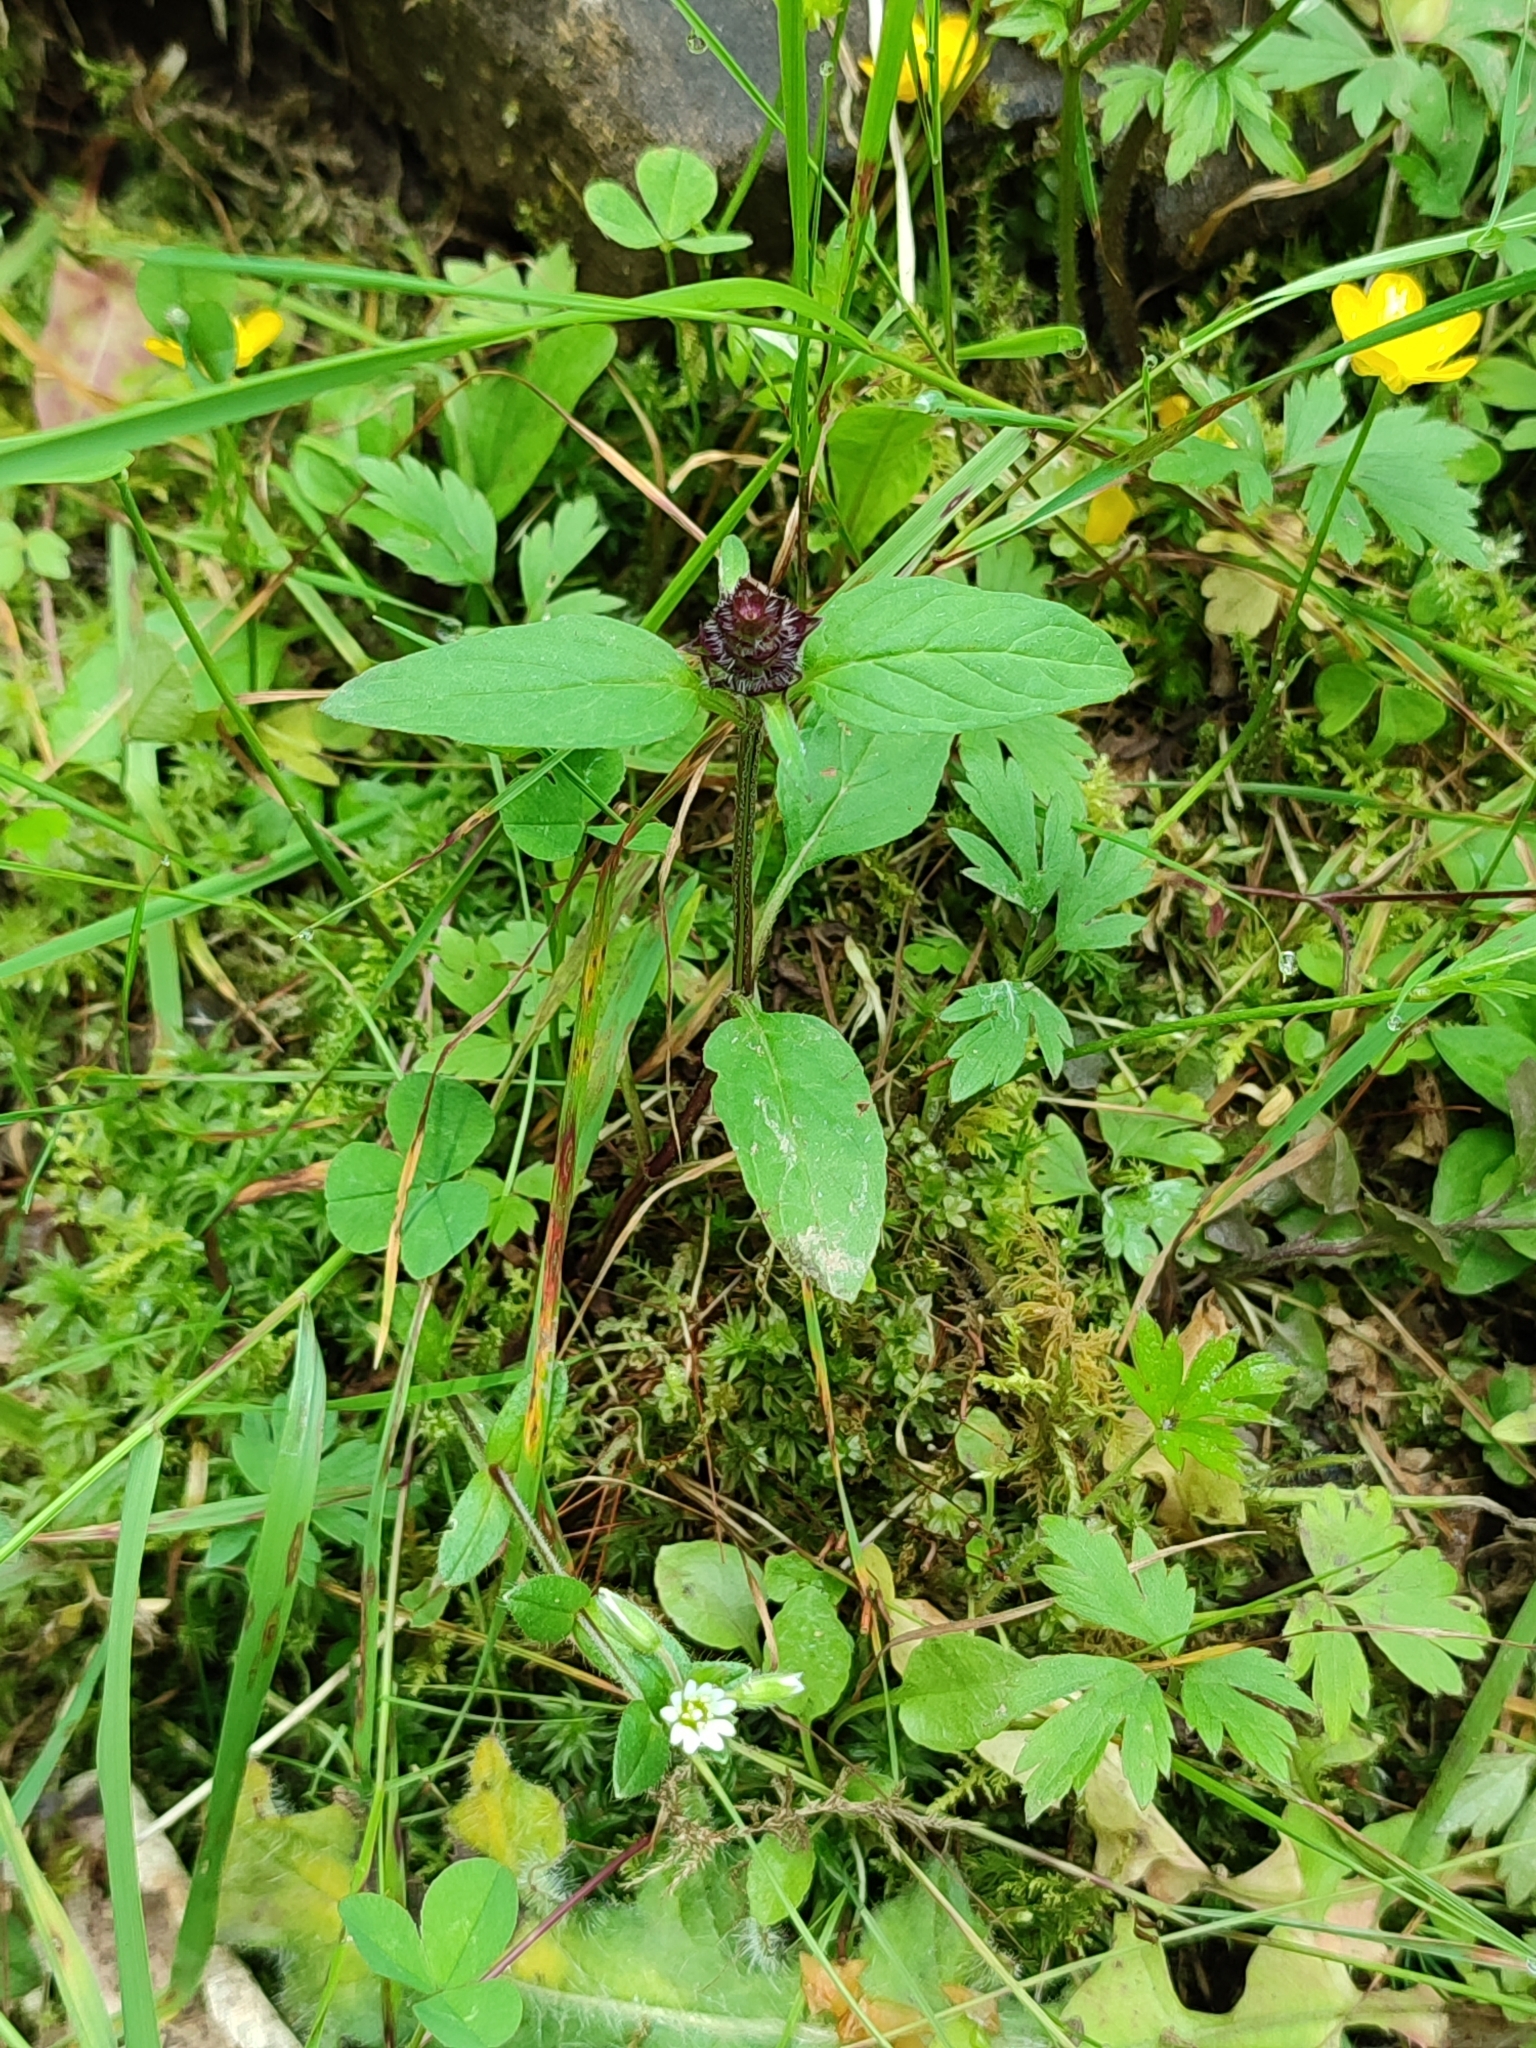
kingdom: Plantae
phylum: Tracheophyta
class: Magnoliopsida
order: Lamiales
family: Lamiaceae
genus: Prunella
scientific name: Prunella vulgaris
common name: Heal-all
